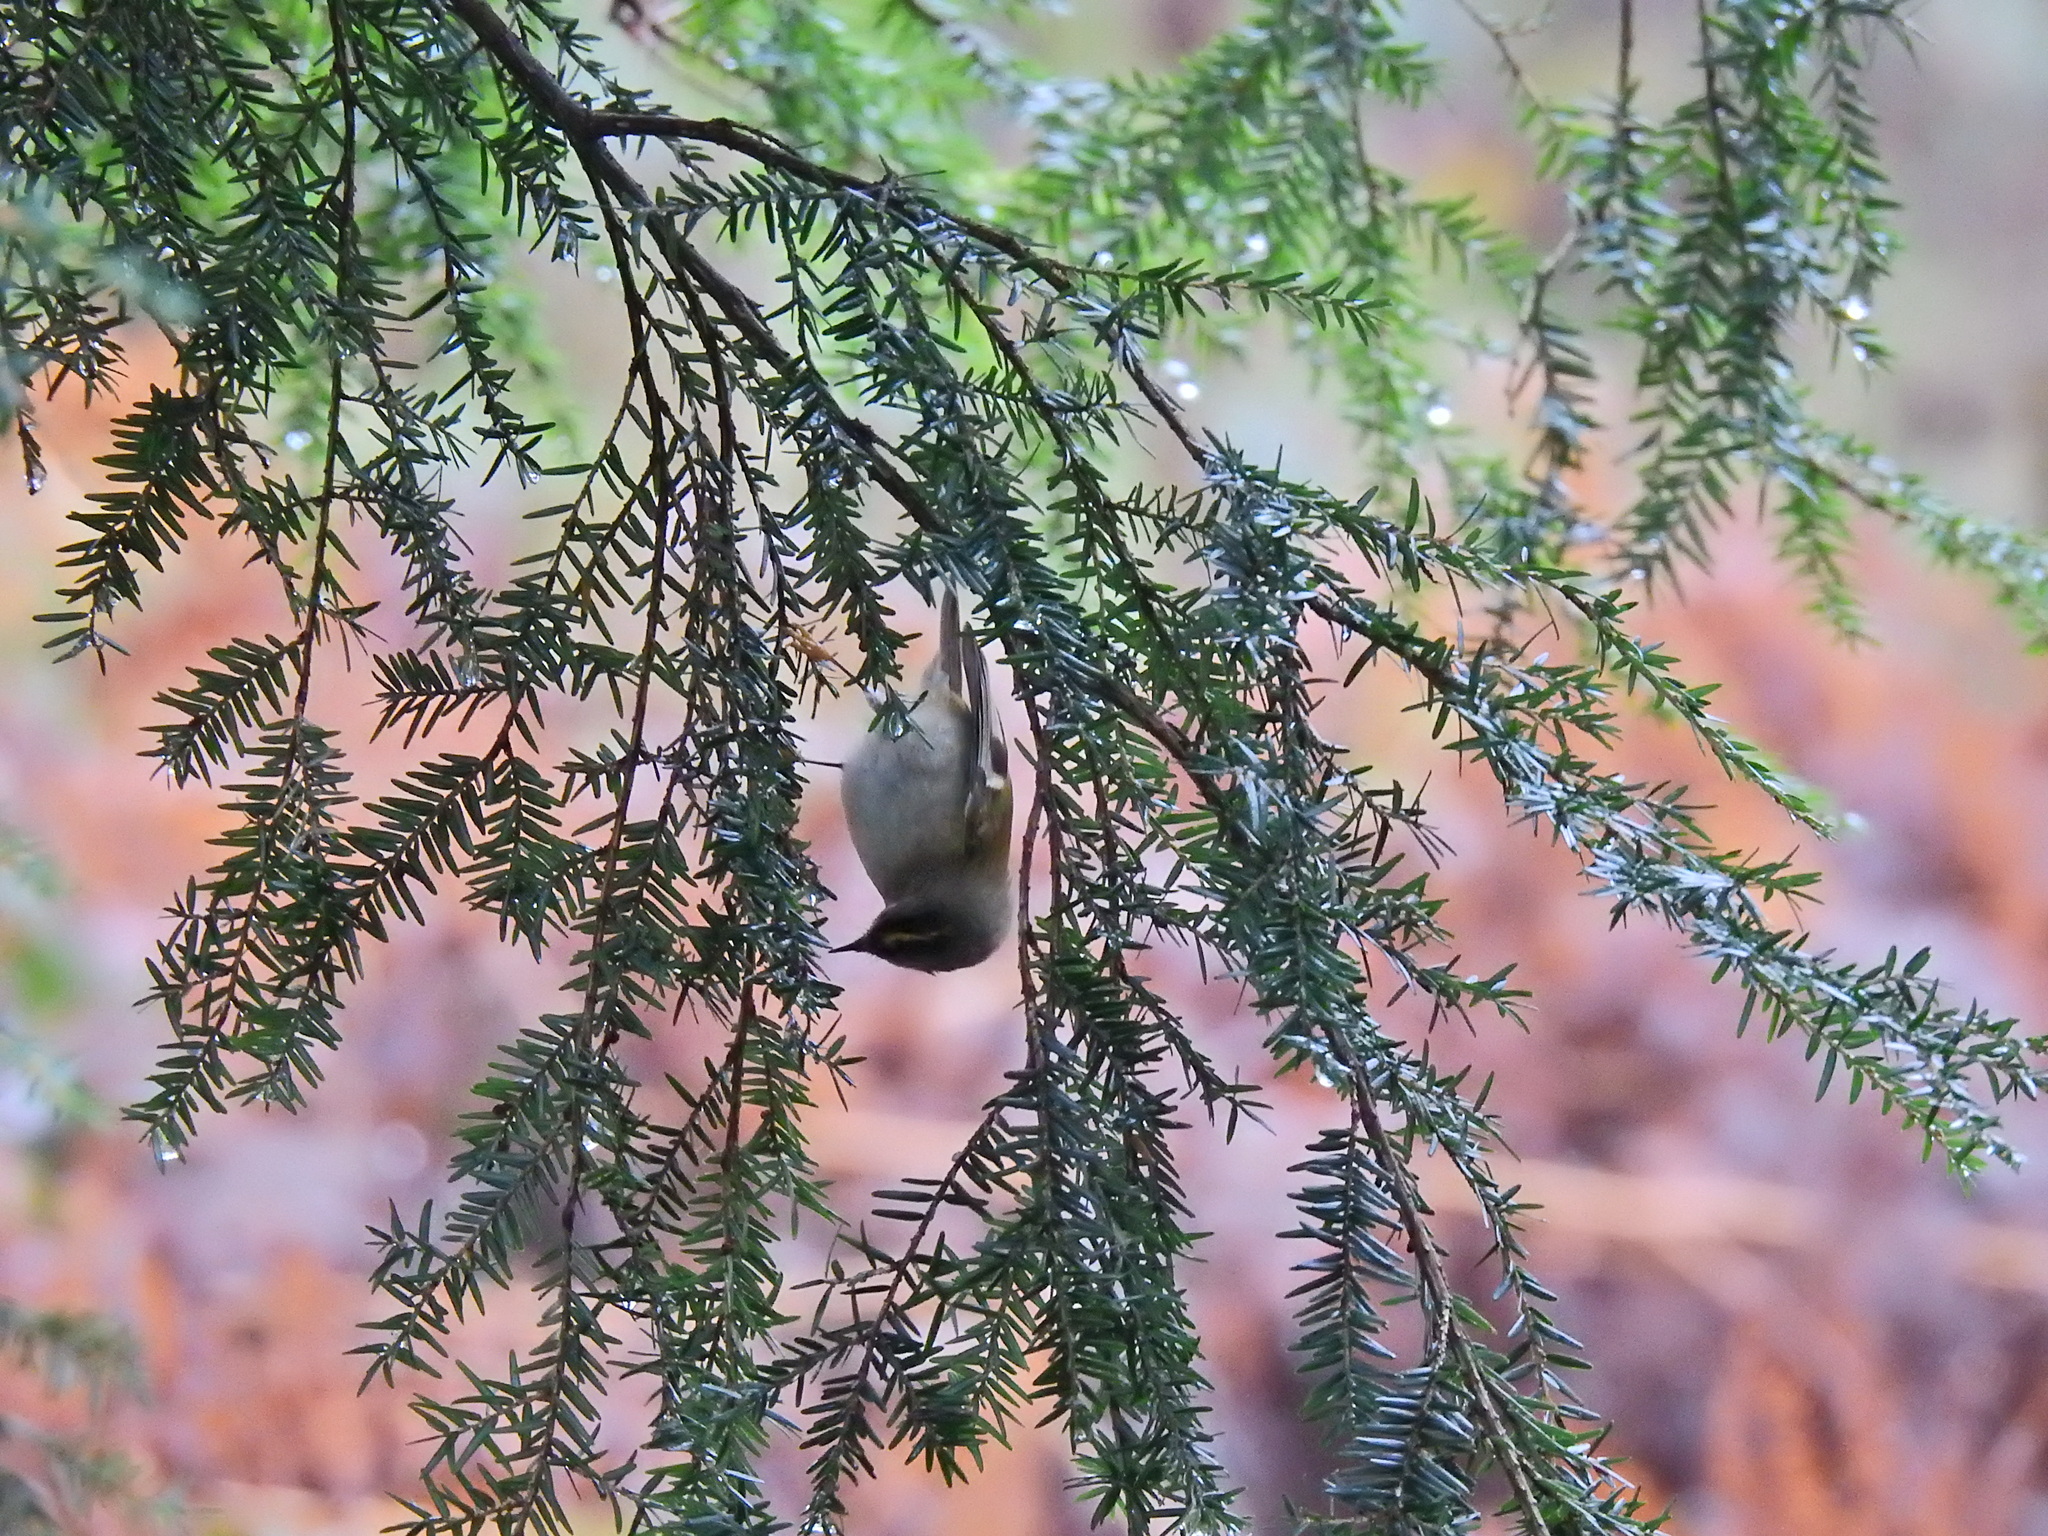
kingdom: Animalia
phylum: Chordata
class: Aves
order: Passeriformes
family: Regulidae
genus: Regulus
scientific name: Regulus regulus
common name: Goldcrest
